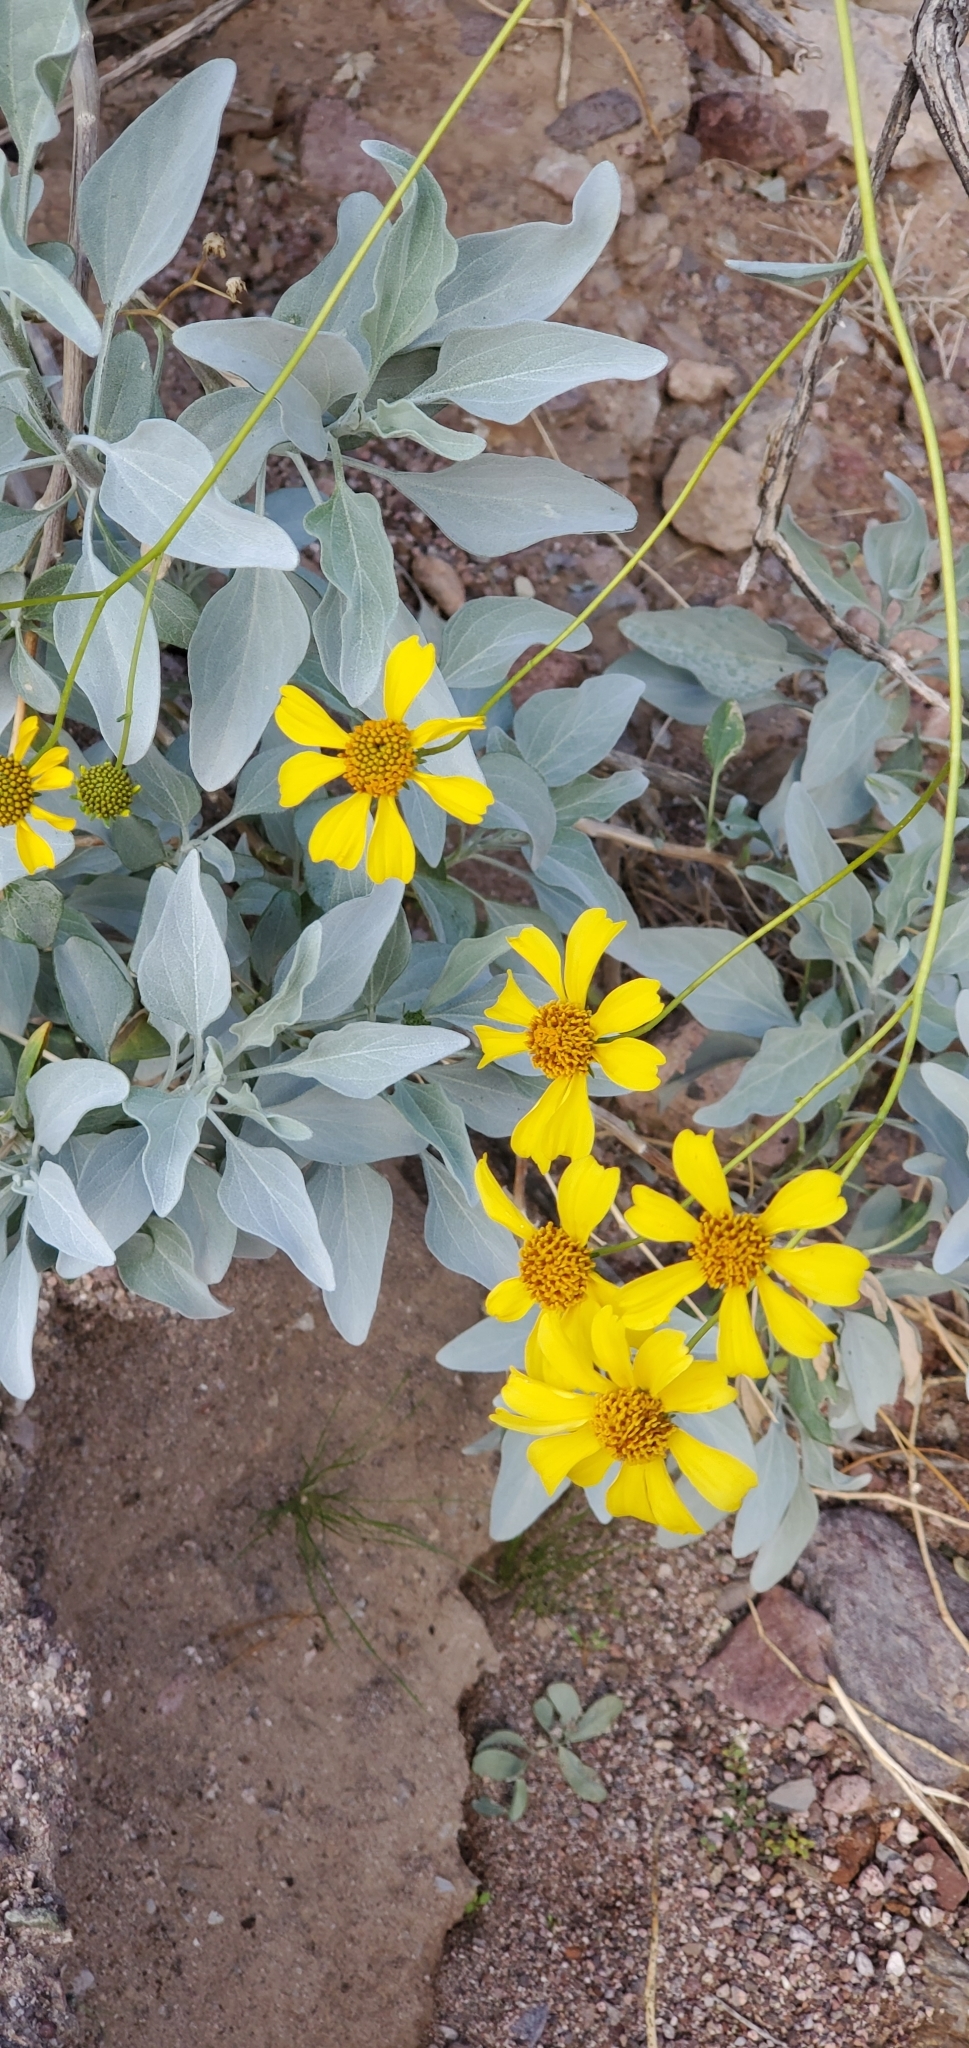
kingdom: Plantae
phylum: Tracheophyta
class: Magnoliopsida
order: Asterales
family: Asteraceae
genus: Encelia
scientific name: Encelia farinosa
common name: Brittlebush
